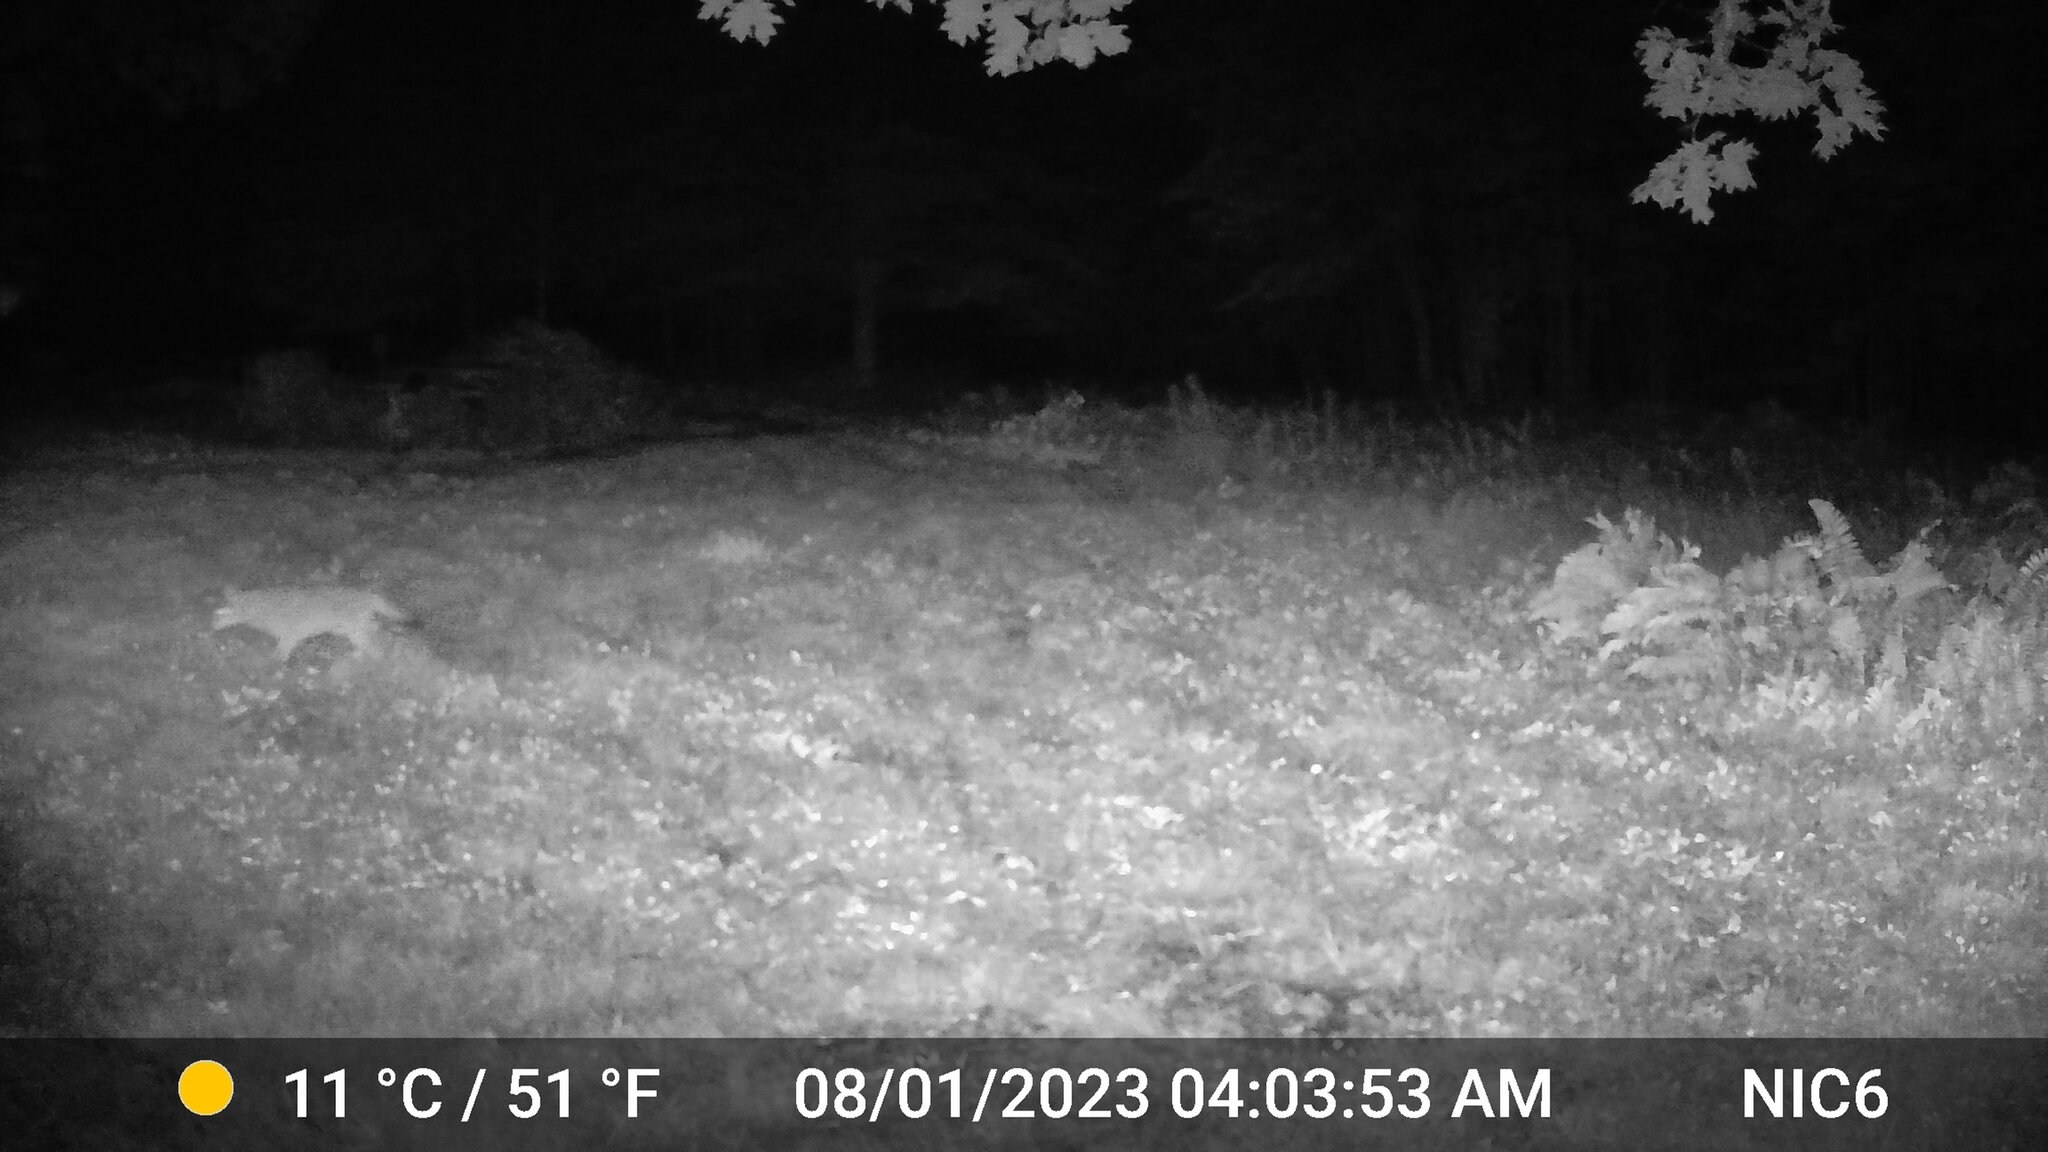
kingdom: Animalia
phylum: Chordata
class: Mammalia
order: Carnivora
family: Canidae
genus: Canis
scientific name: Canis latrans
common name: Coyote
